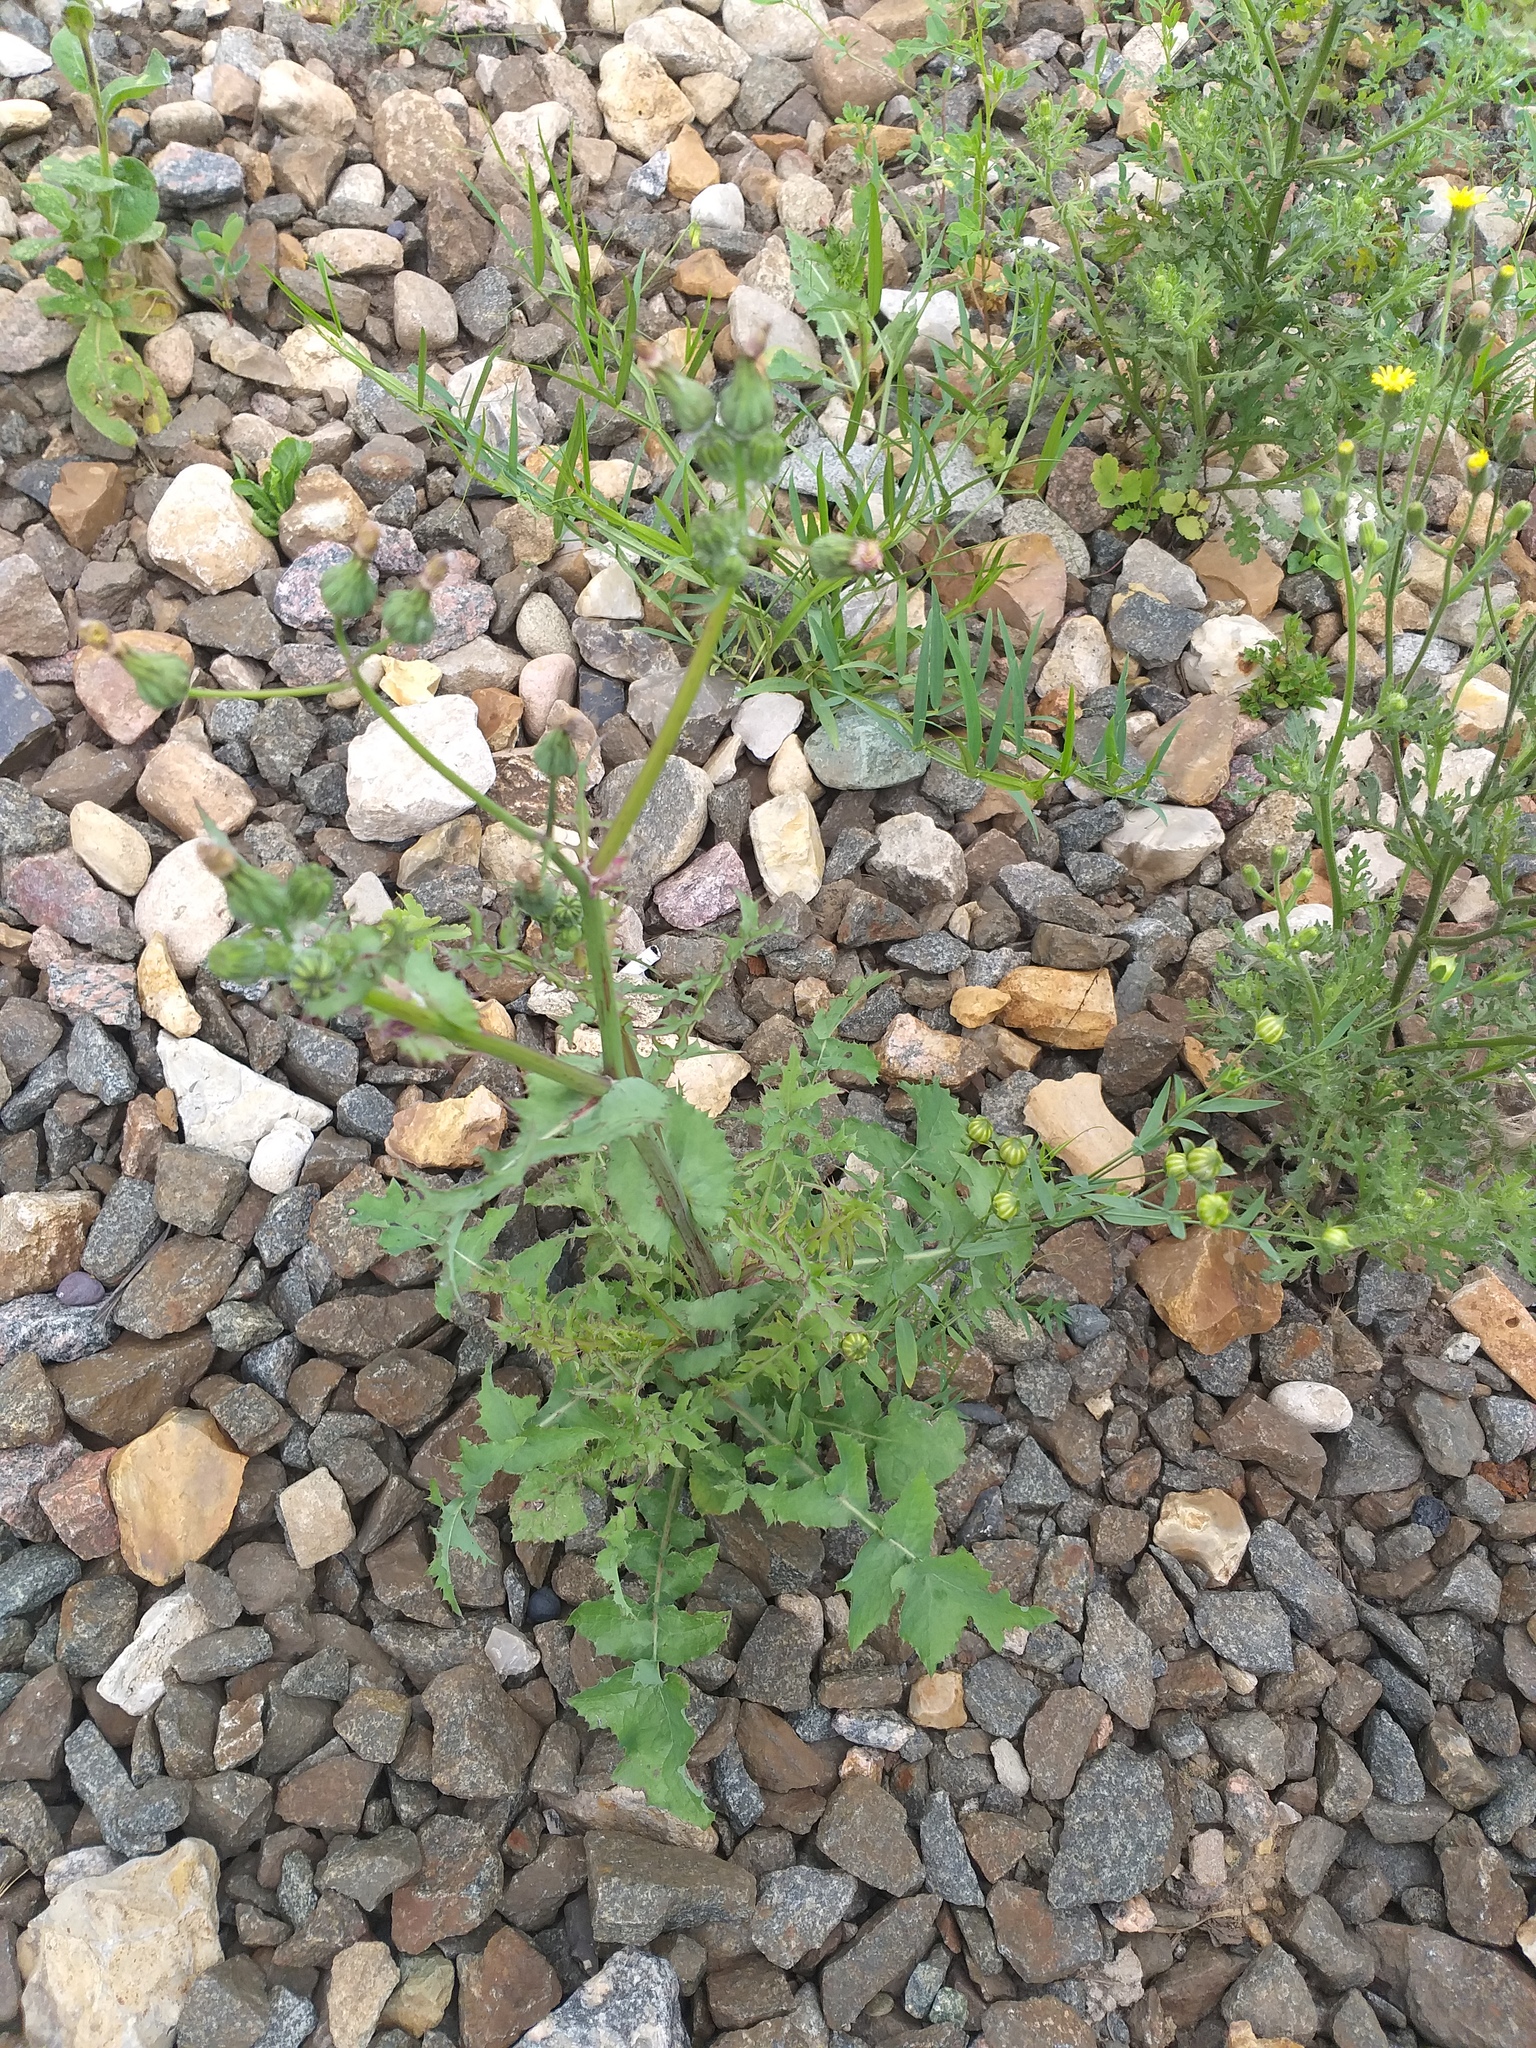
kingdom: Plantae
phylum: Tracheophyta
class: Magnoliopsida
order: Asterales
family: Asteraceae
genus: Sonchus
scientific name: Sonchus oleraceus
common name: Common sowthistle
